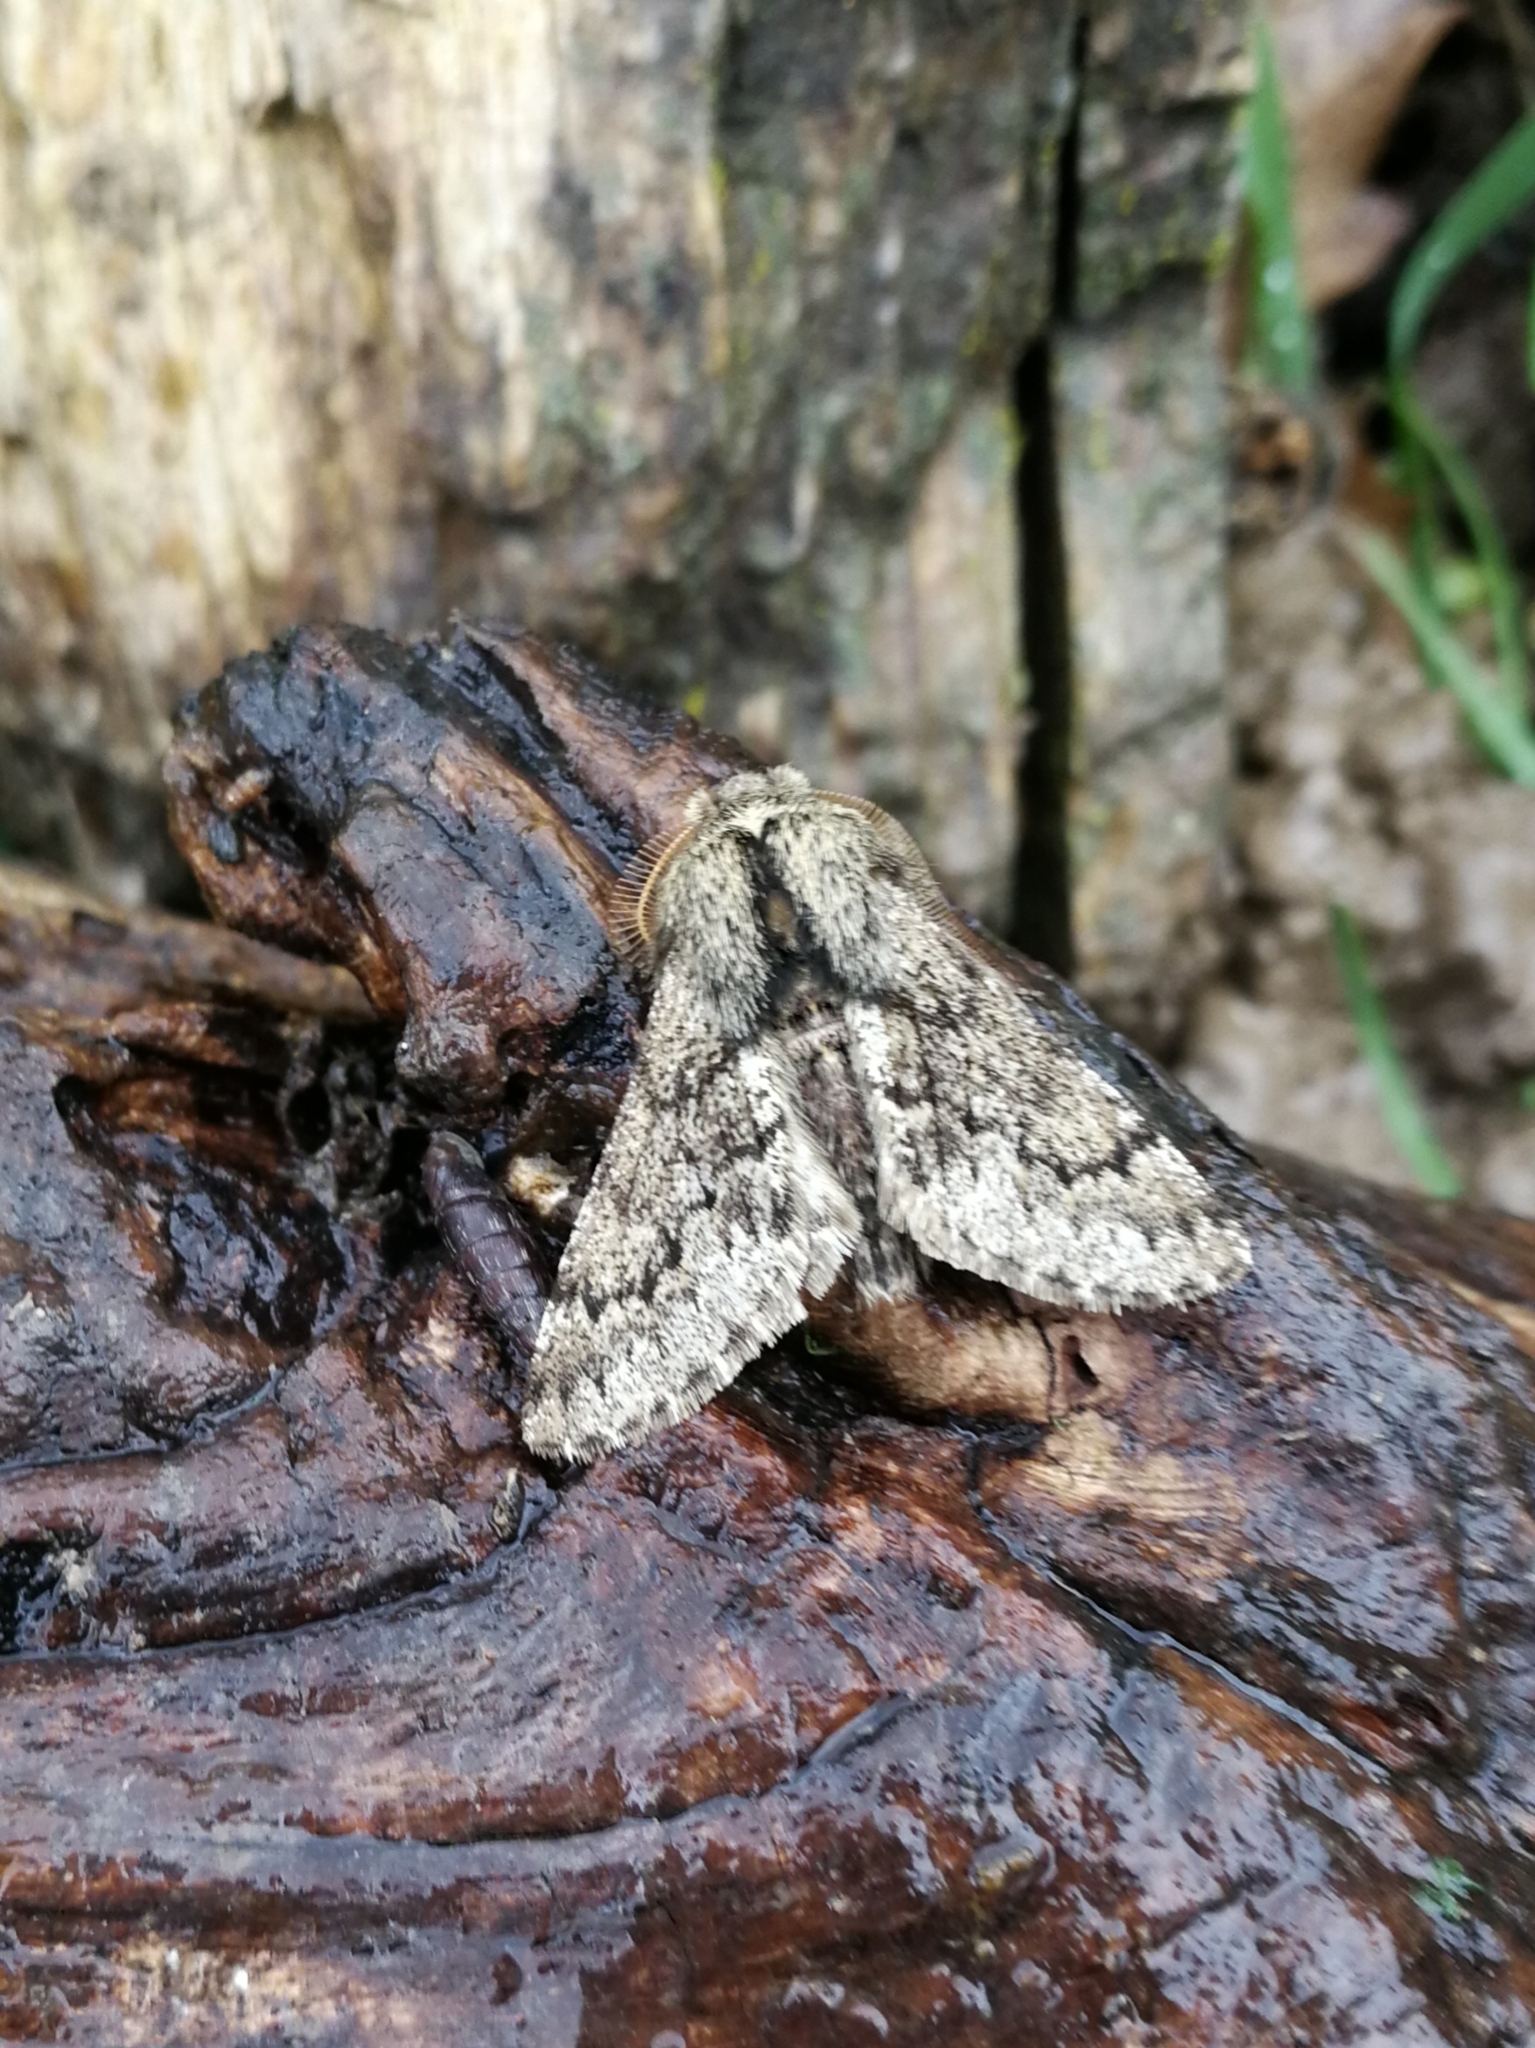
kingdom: Animalia
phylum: Arthropoda
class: Insecta
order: Lepidoptera
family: Geometridae
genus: Apocheima
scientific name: Apocheima hispidaria
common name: Small brindled beauty
